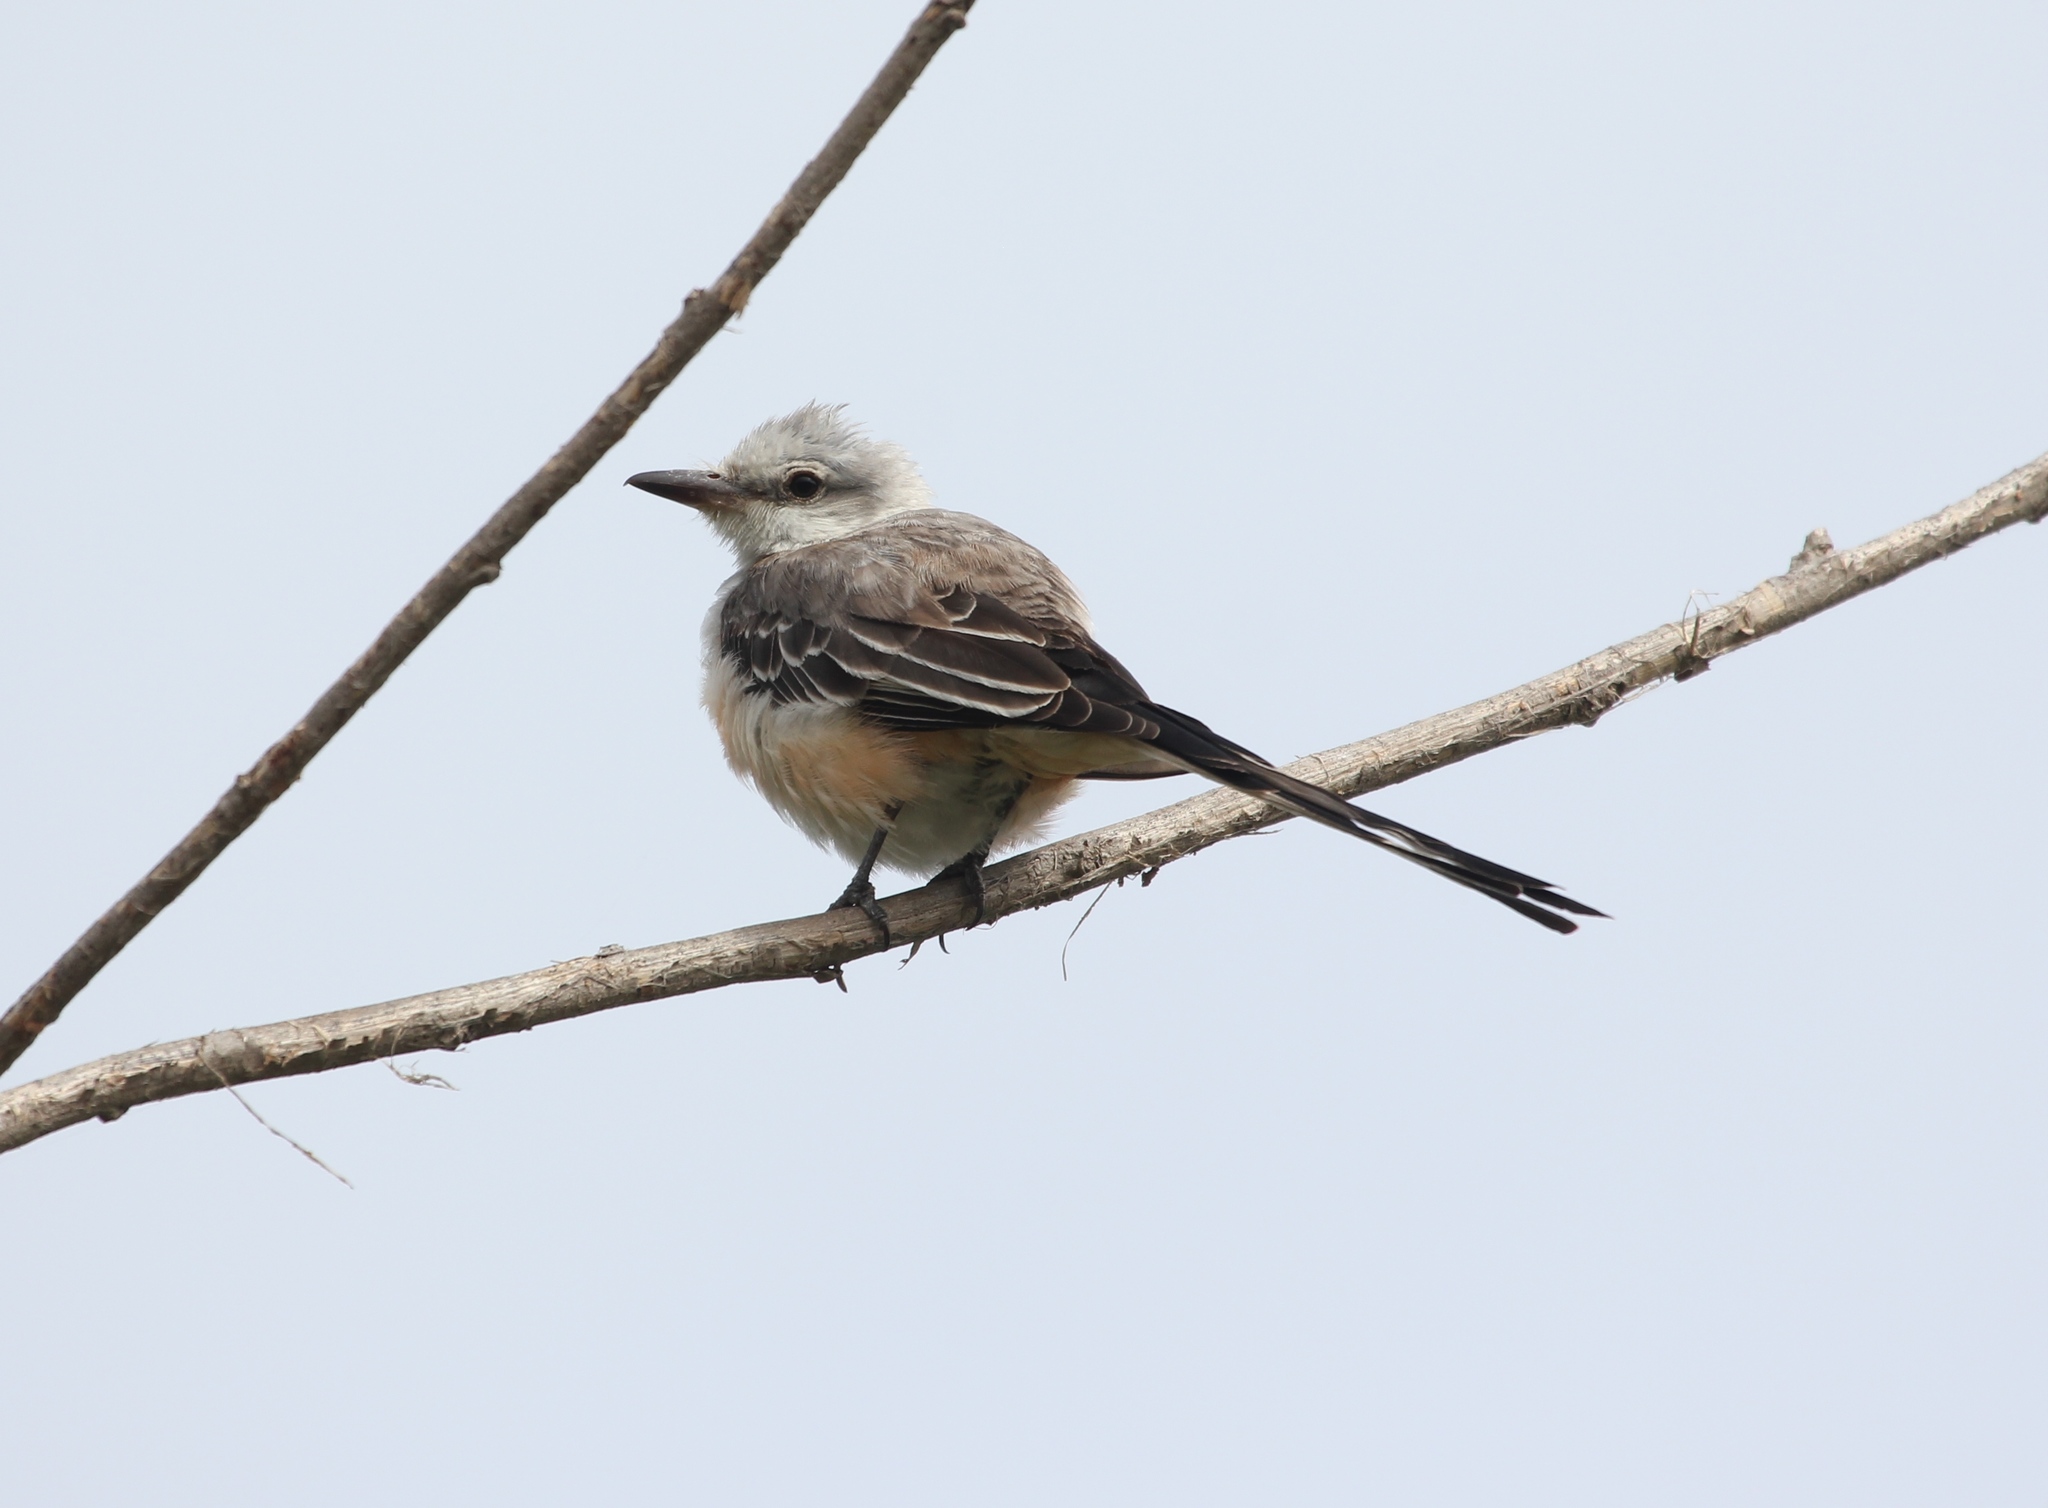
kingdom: Animalia
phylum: Chordata
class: Aves
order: Passeriformes
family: Tyrannidae
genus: Tyrannus
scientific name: Tyrannus forficatus
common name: Scissor-tailed flycatcher
